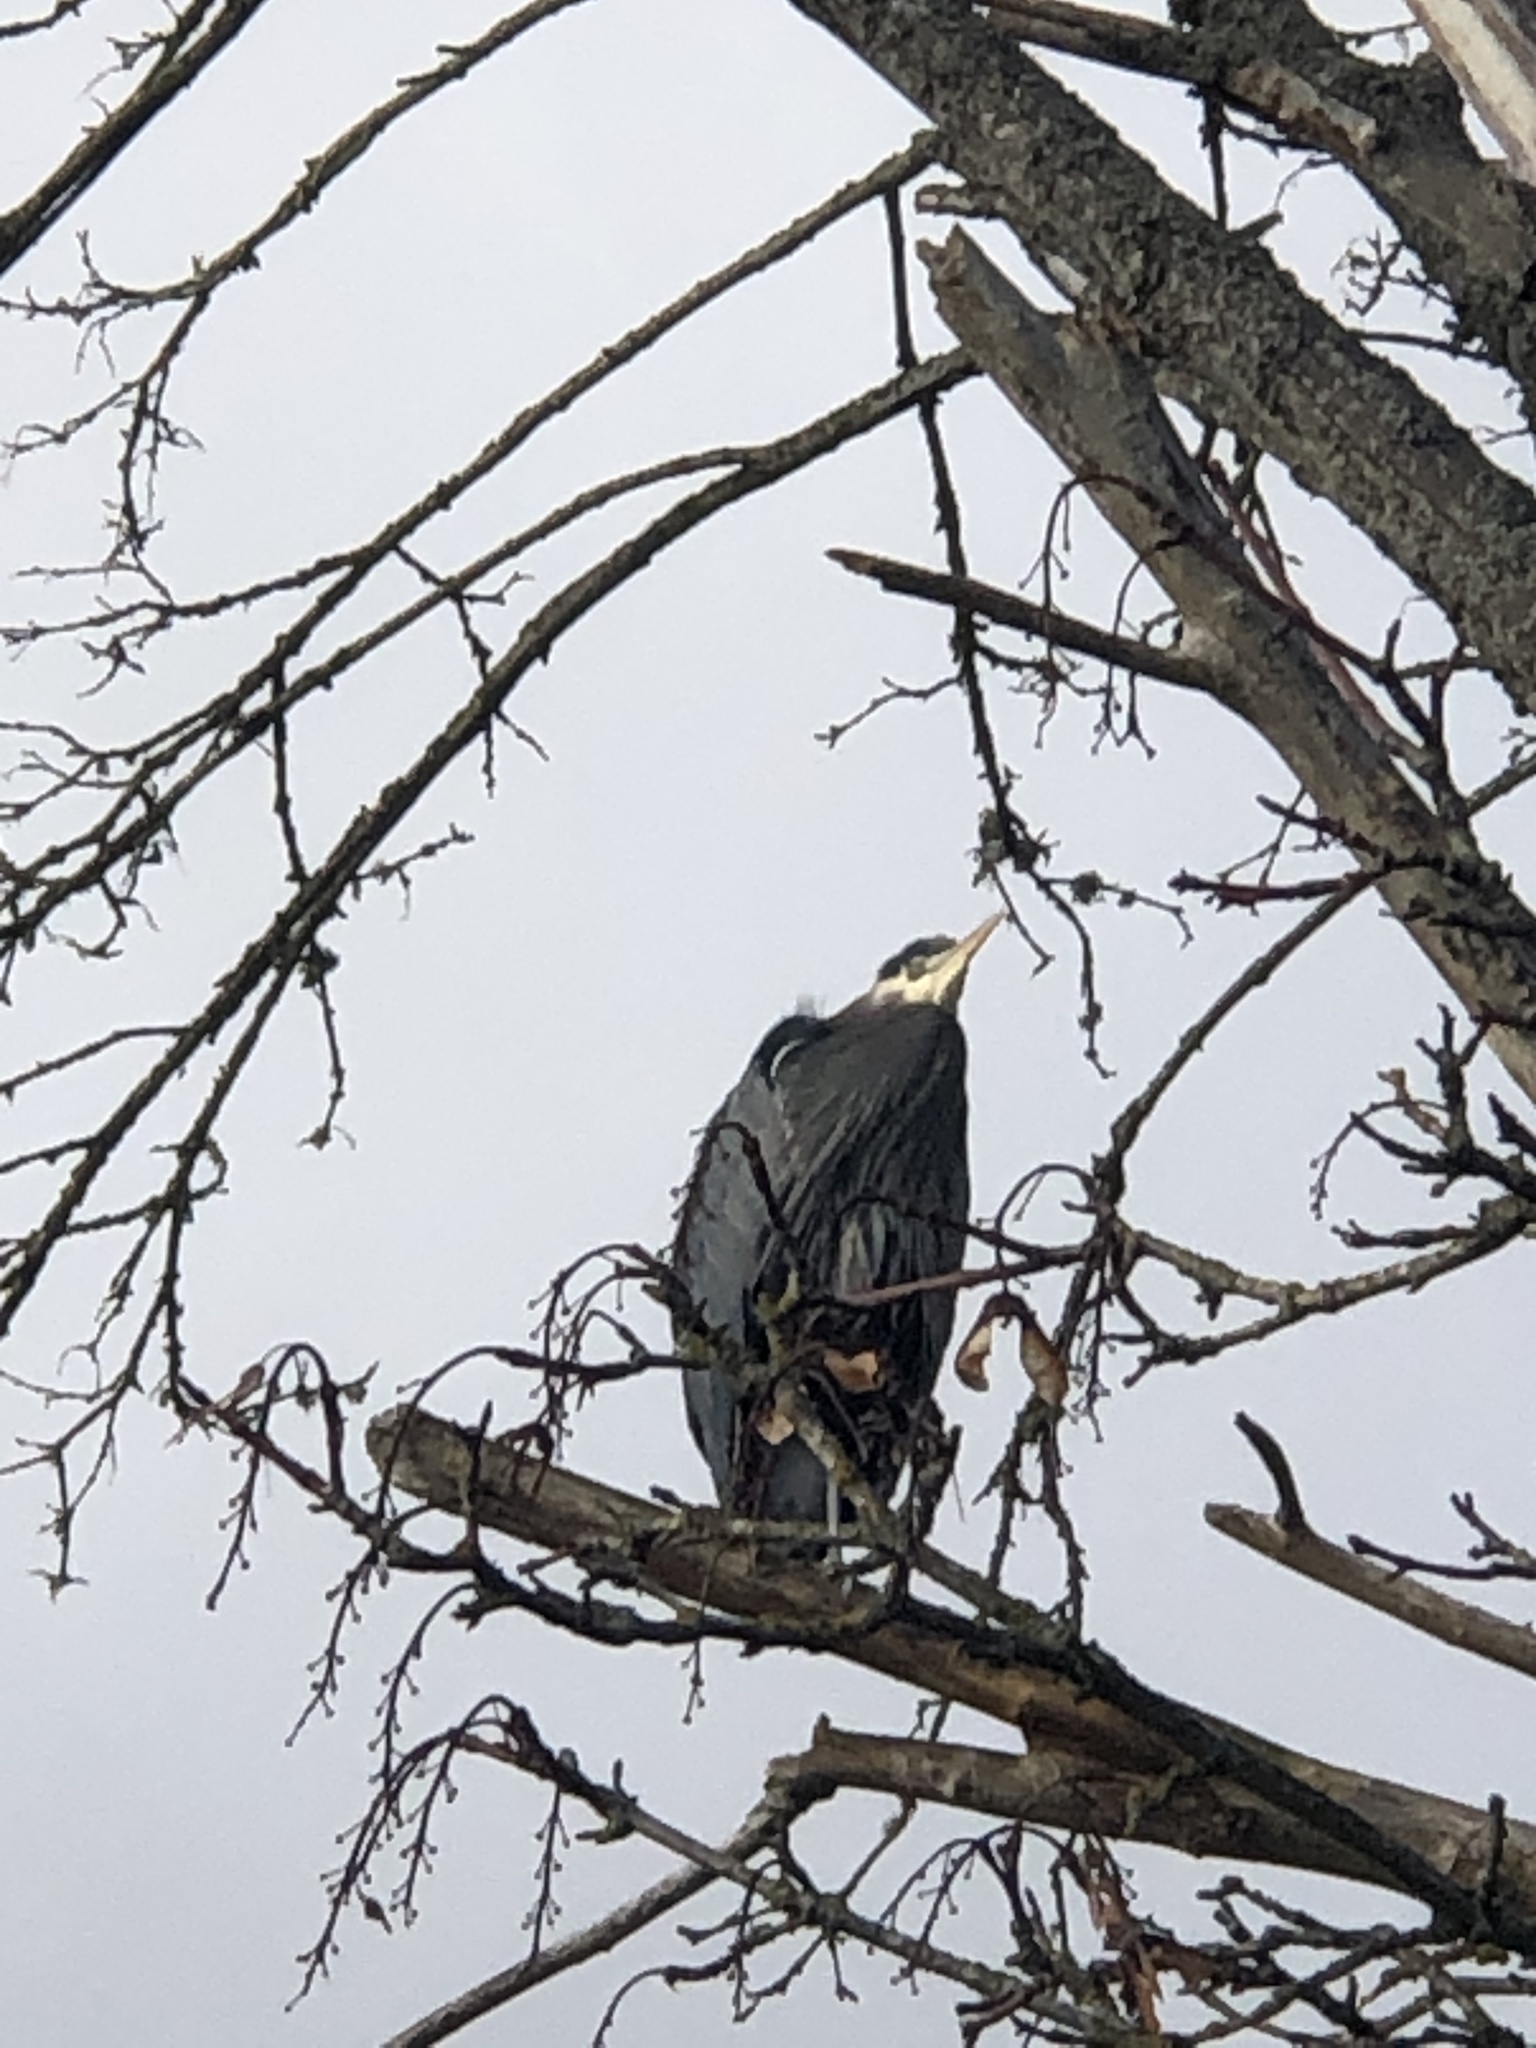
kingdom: Animalia
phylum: Chordata
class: Aves
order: Pelecaniformes
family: Ardeidae
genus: Ardea
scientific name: Ardea herodias
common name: Great blue heron
